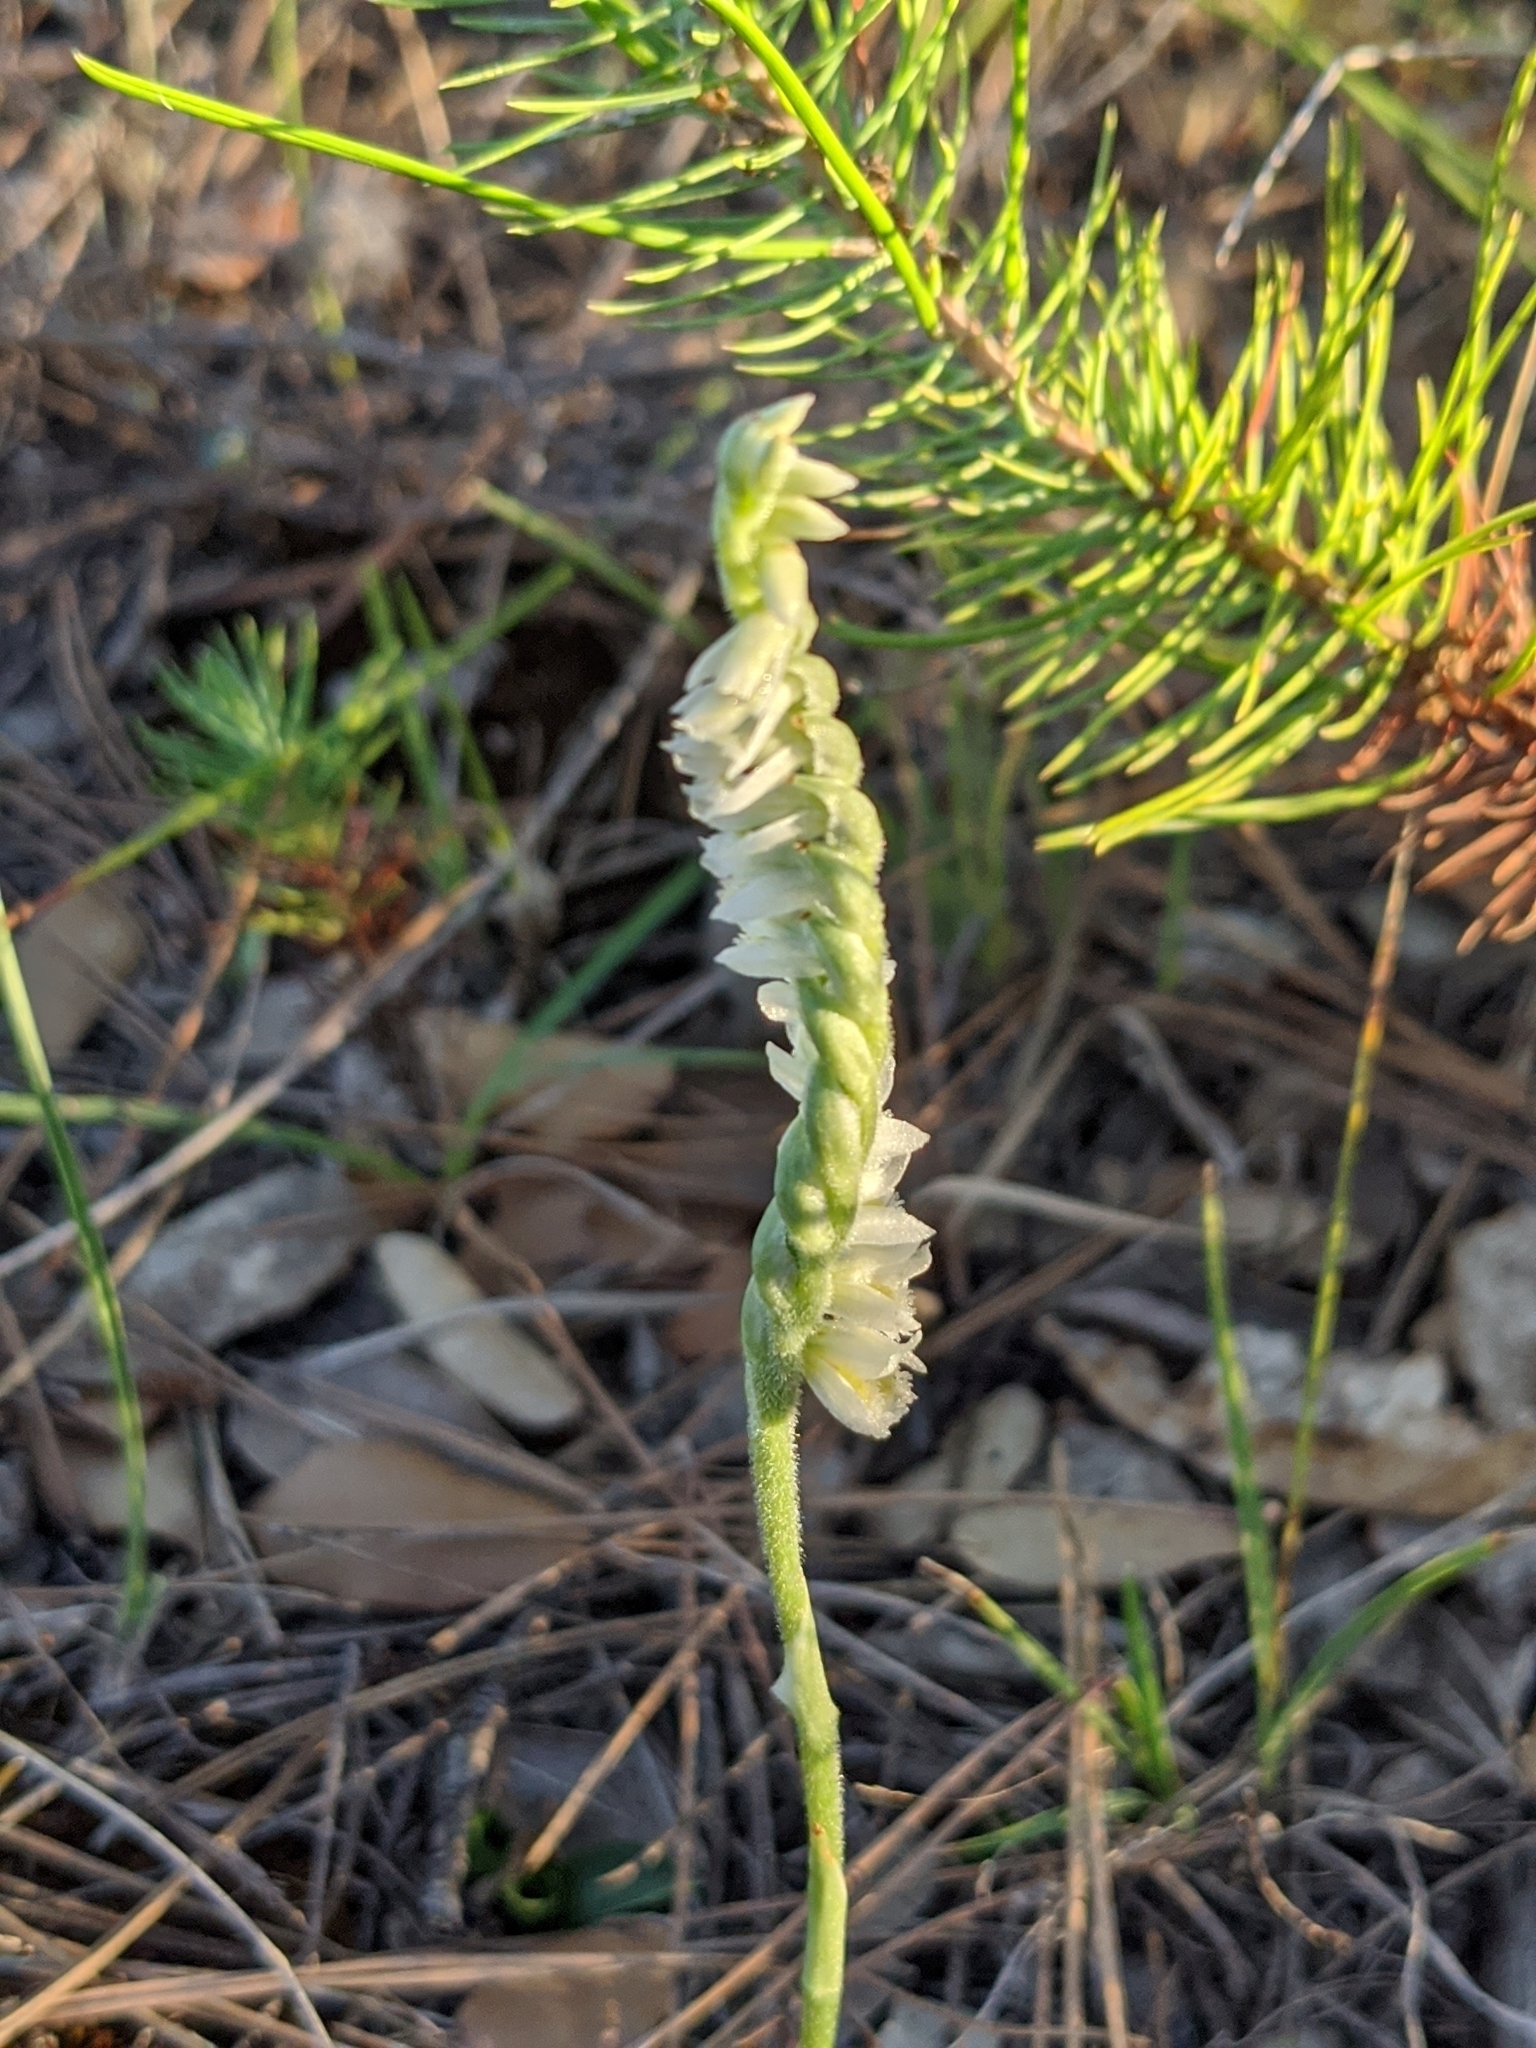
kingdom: Plantae
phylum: Tracheophyta
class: Liliopsida
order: Asparagales
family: Orchidaceae
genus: Spiranthes
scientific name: Spiranthes spiralis
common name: Autumn lady's-tresses
